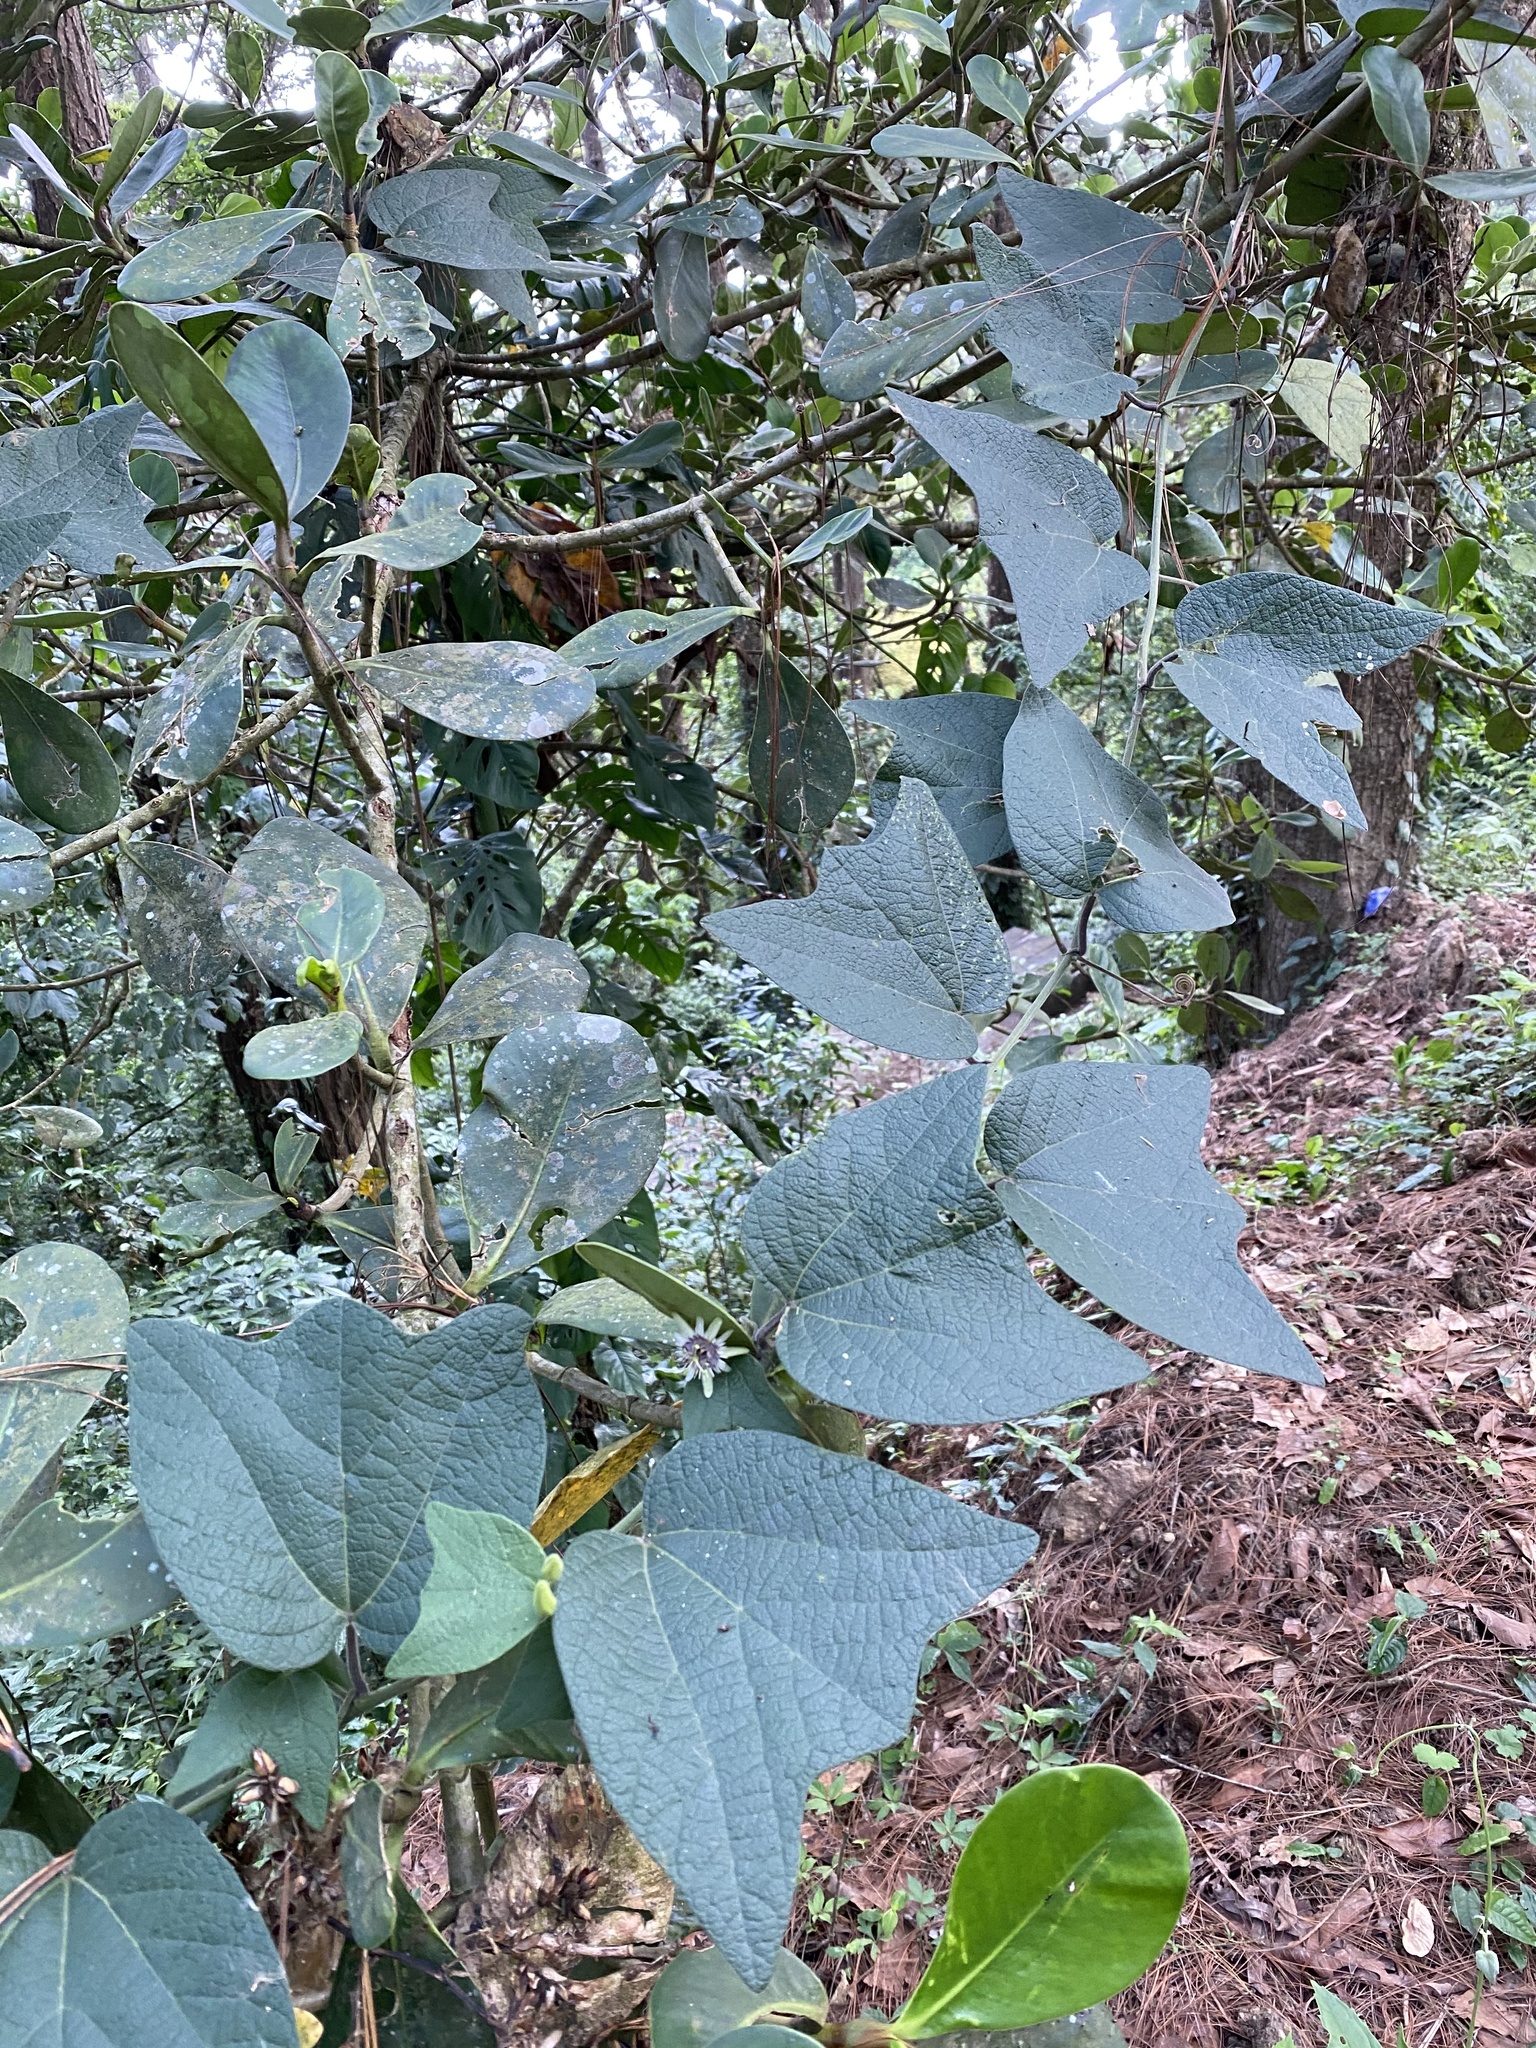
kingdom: Plantae
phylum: Tracheophyta
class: Magnoliopsida
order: Malpighiales
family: Passifloraceae
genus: Passiflora
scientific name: Passiflora sexflora
